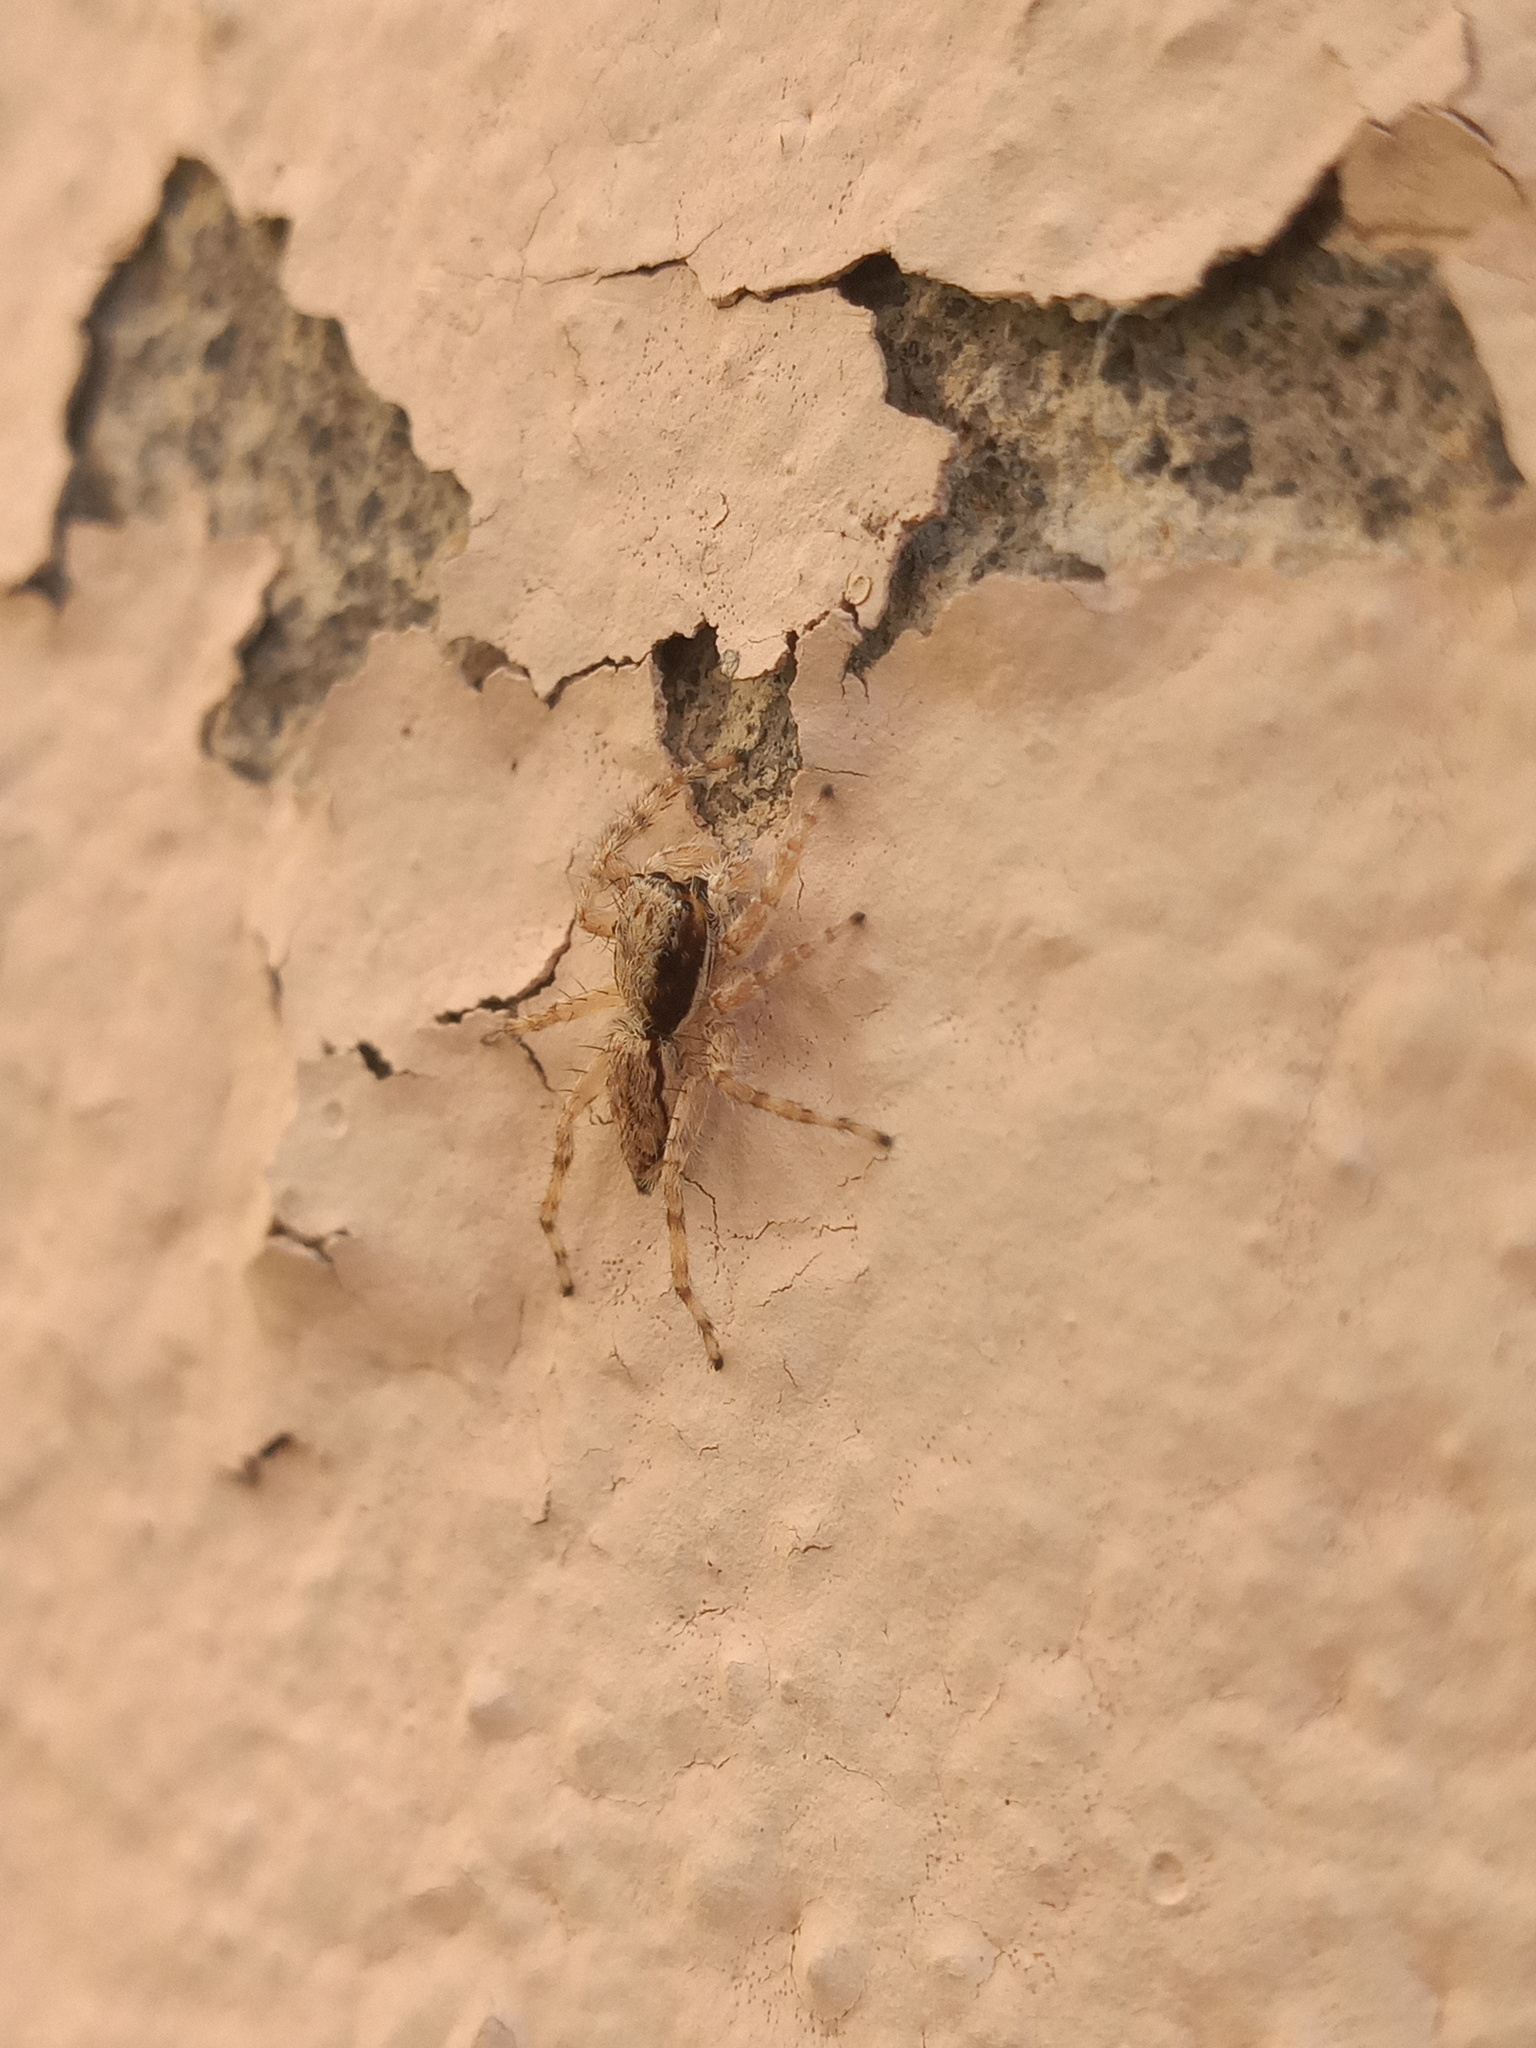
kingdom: Animalia
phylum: Arthropoda
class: Arachnida
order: Araneae
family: Salticidae
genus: Menemerus
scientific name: Menemerus bivittatus
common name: Gray wall jumper
